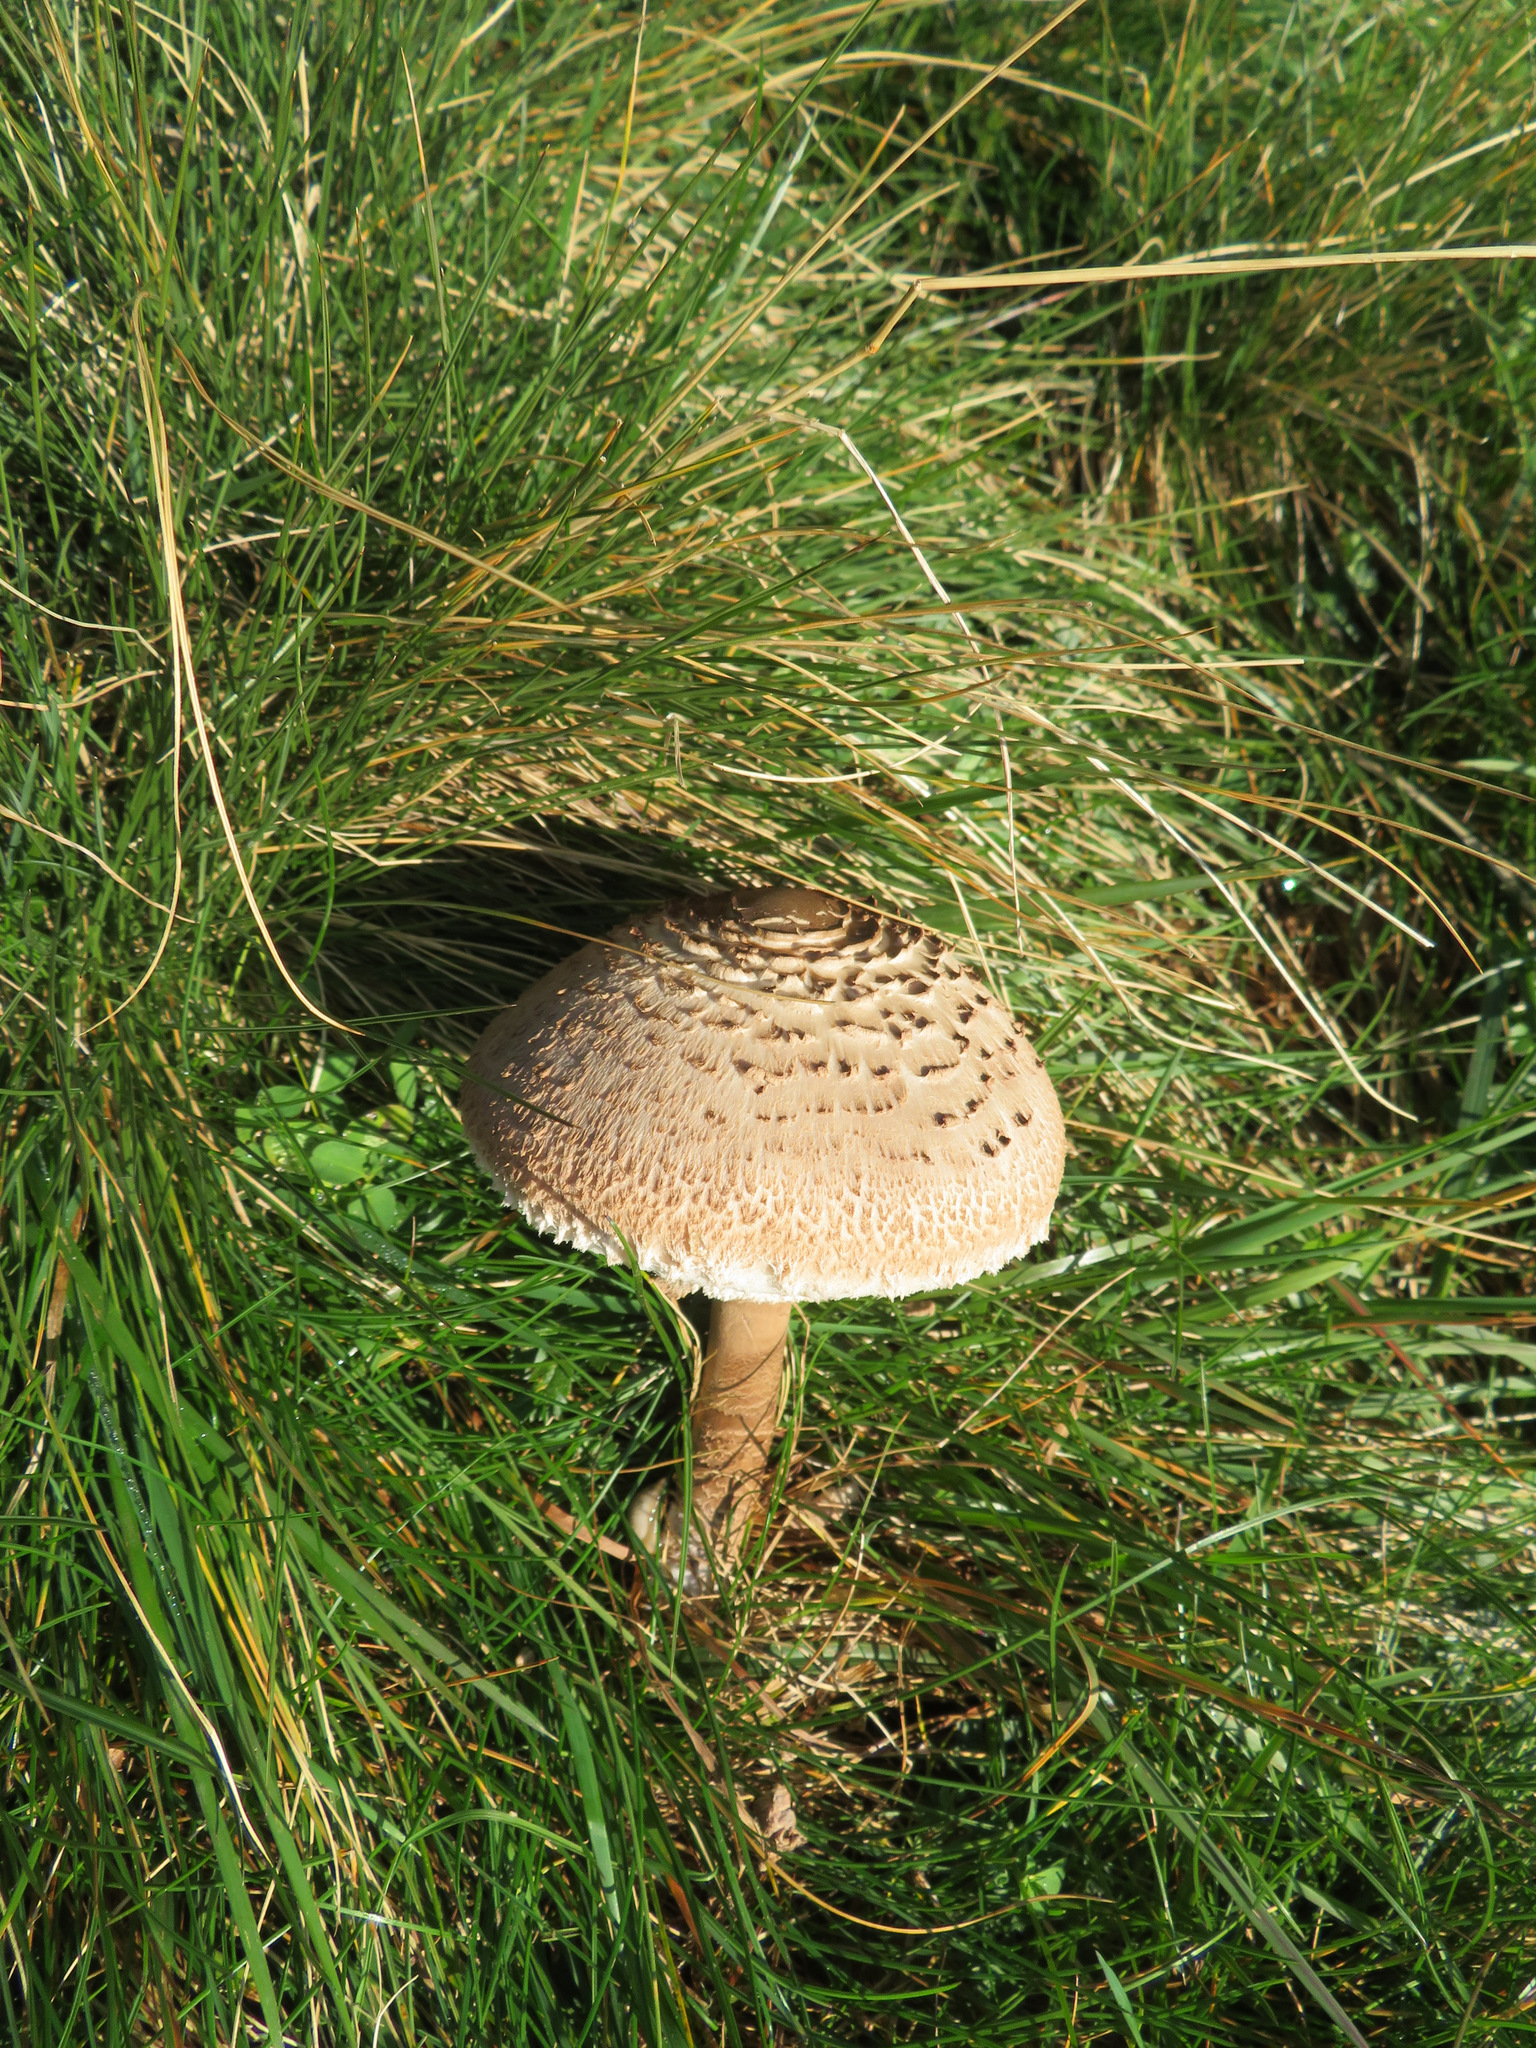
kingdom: Fungi
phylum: Basidiomycota
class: Agaricomycetes
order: Agaricales
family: Agaricaceae
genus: Macrolepiota
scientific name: Macrolepiota procera
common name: Parasol
